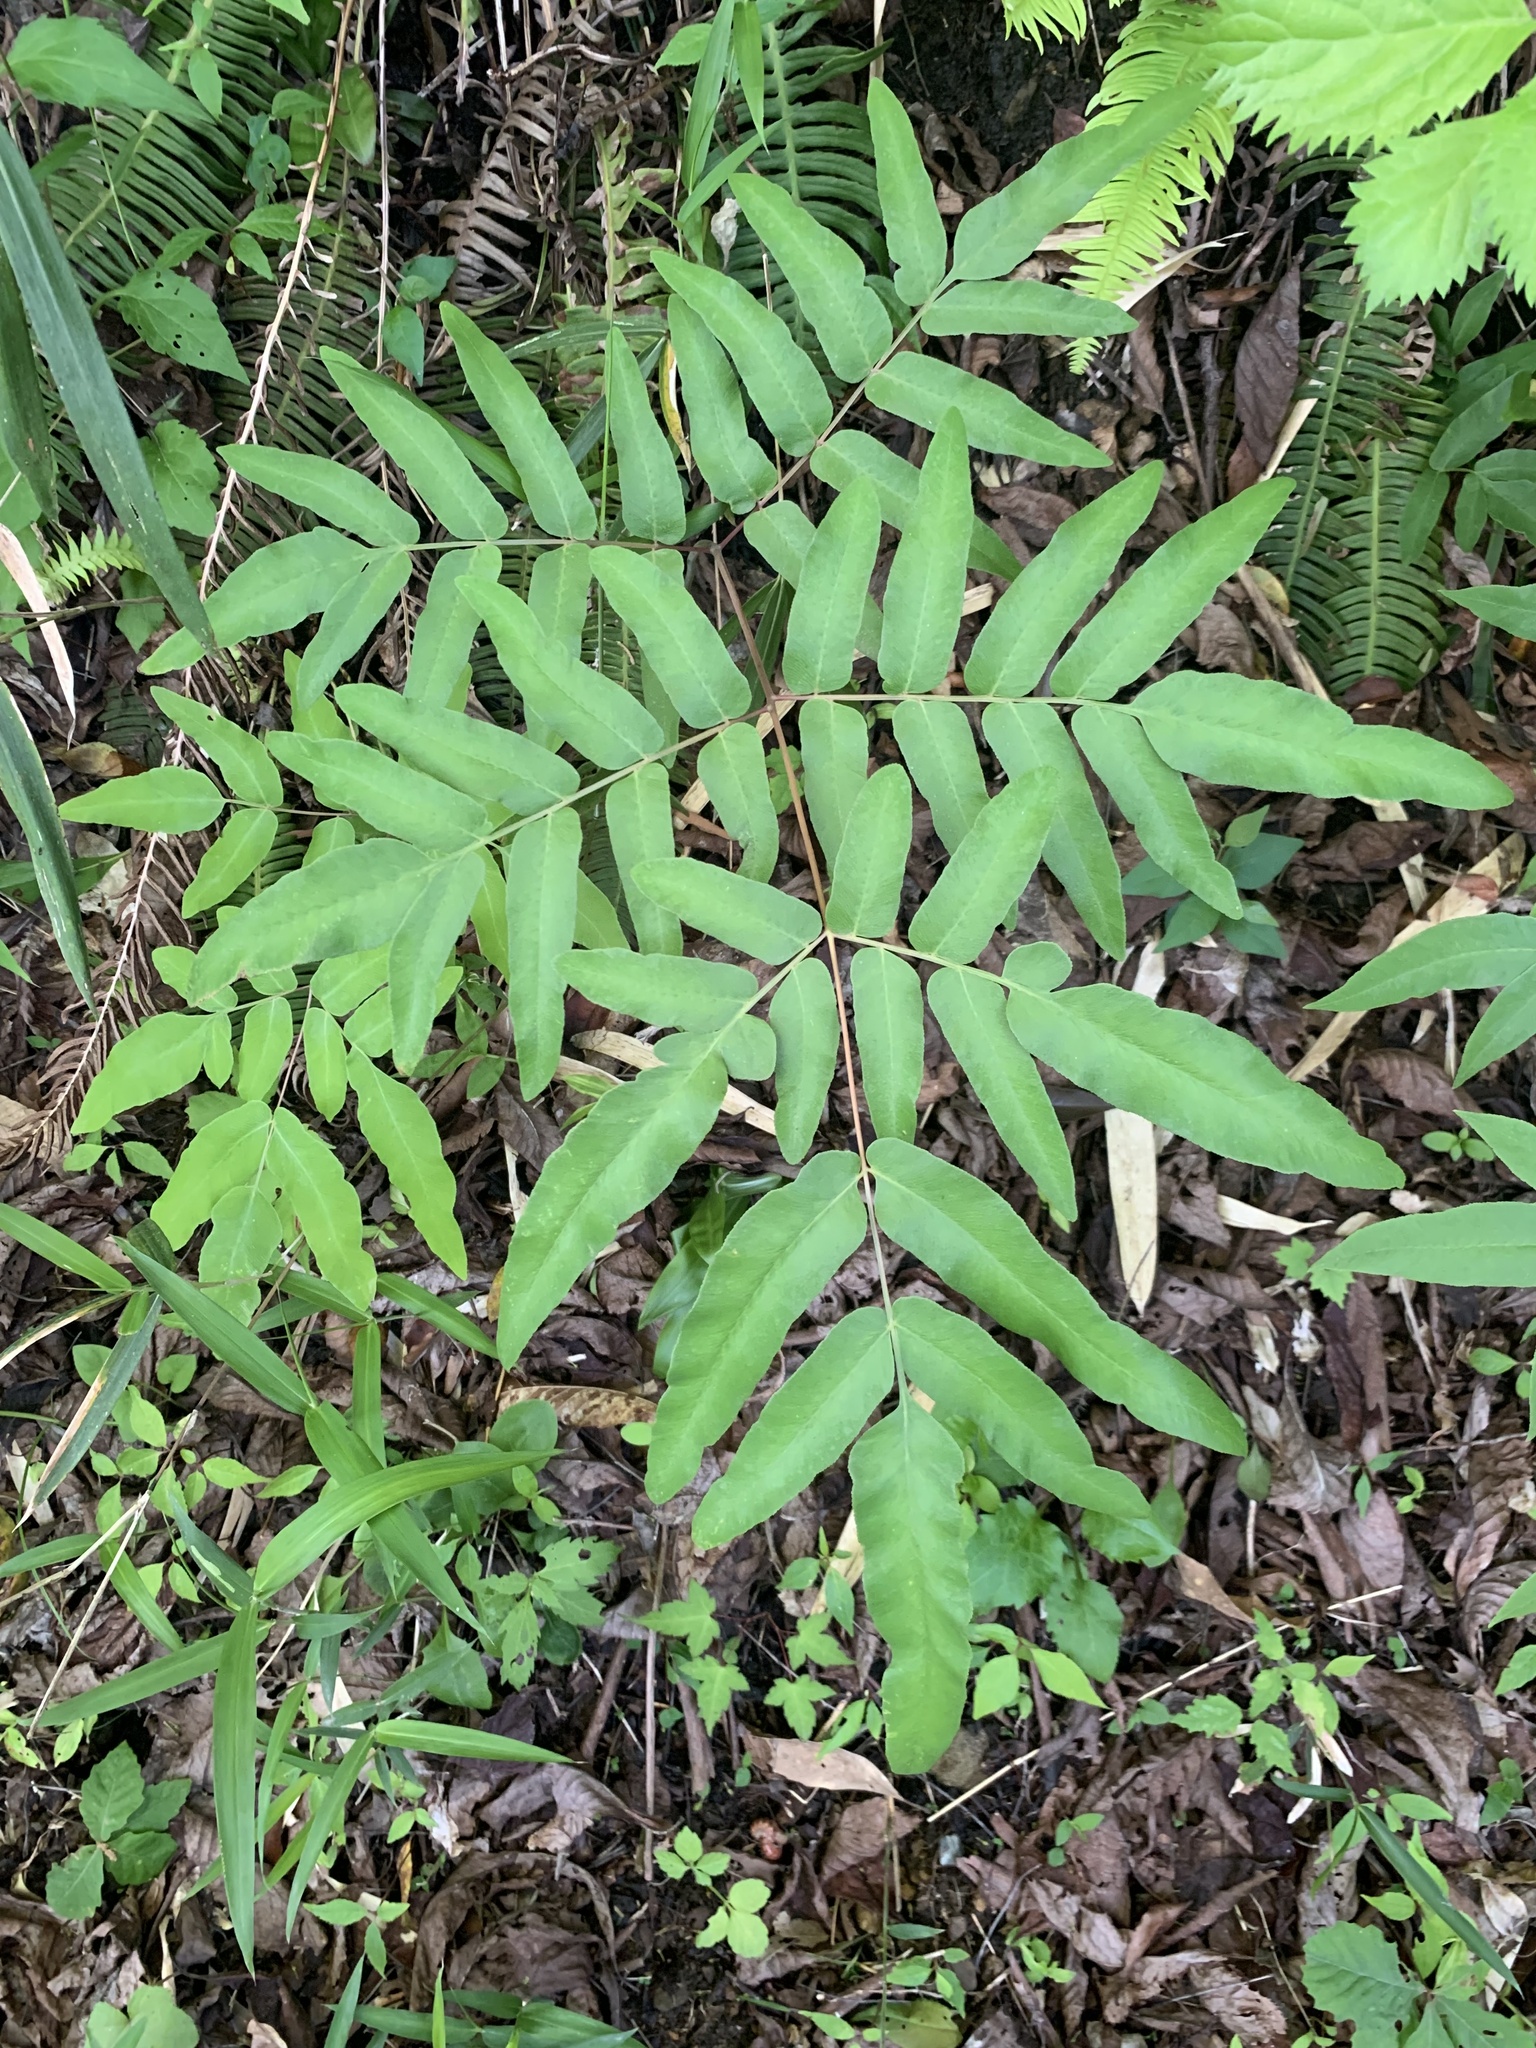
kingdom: Plantae
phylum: Tracheophyta
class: Polypodiopsida
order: Osmundales
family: Osmundaceae
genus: Osmunda
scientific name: Osmunda japonica
